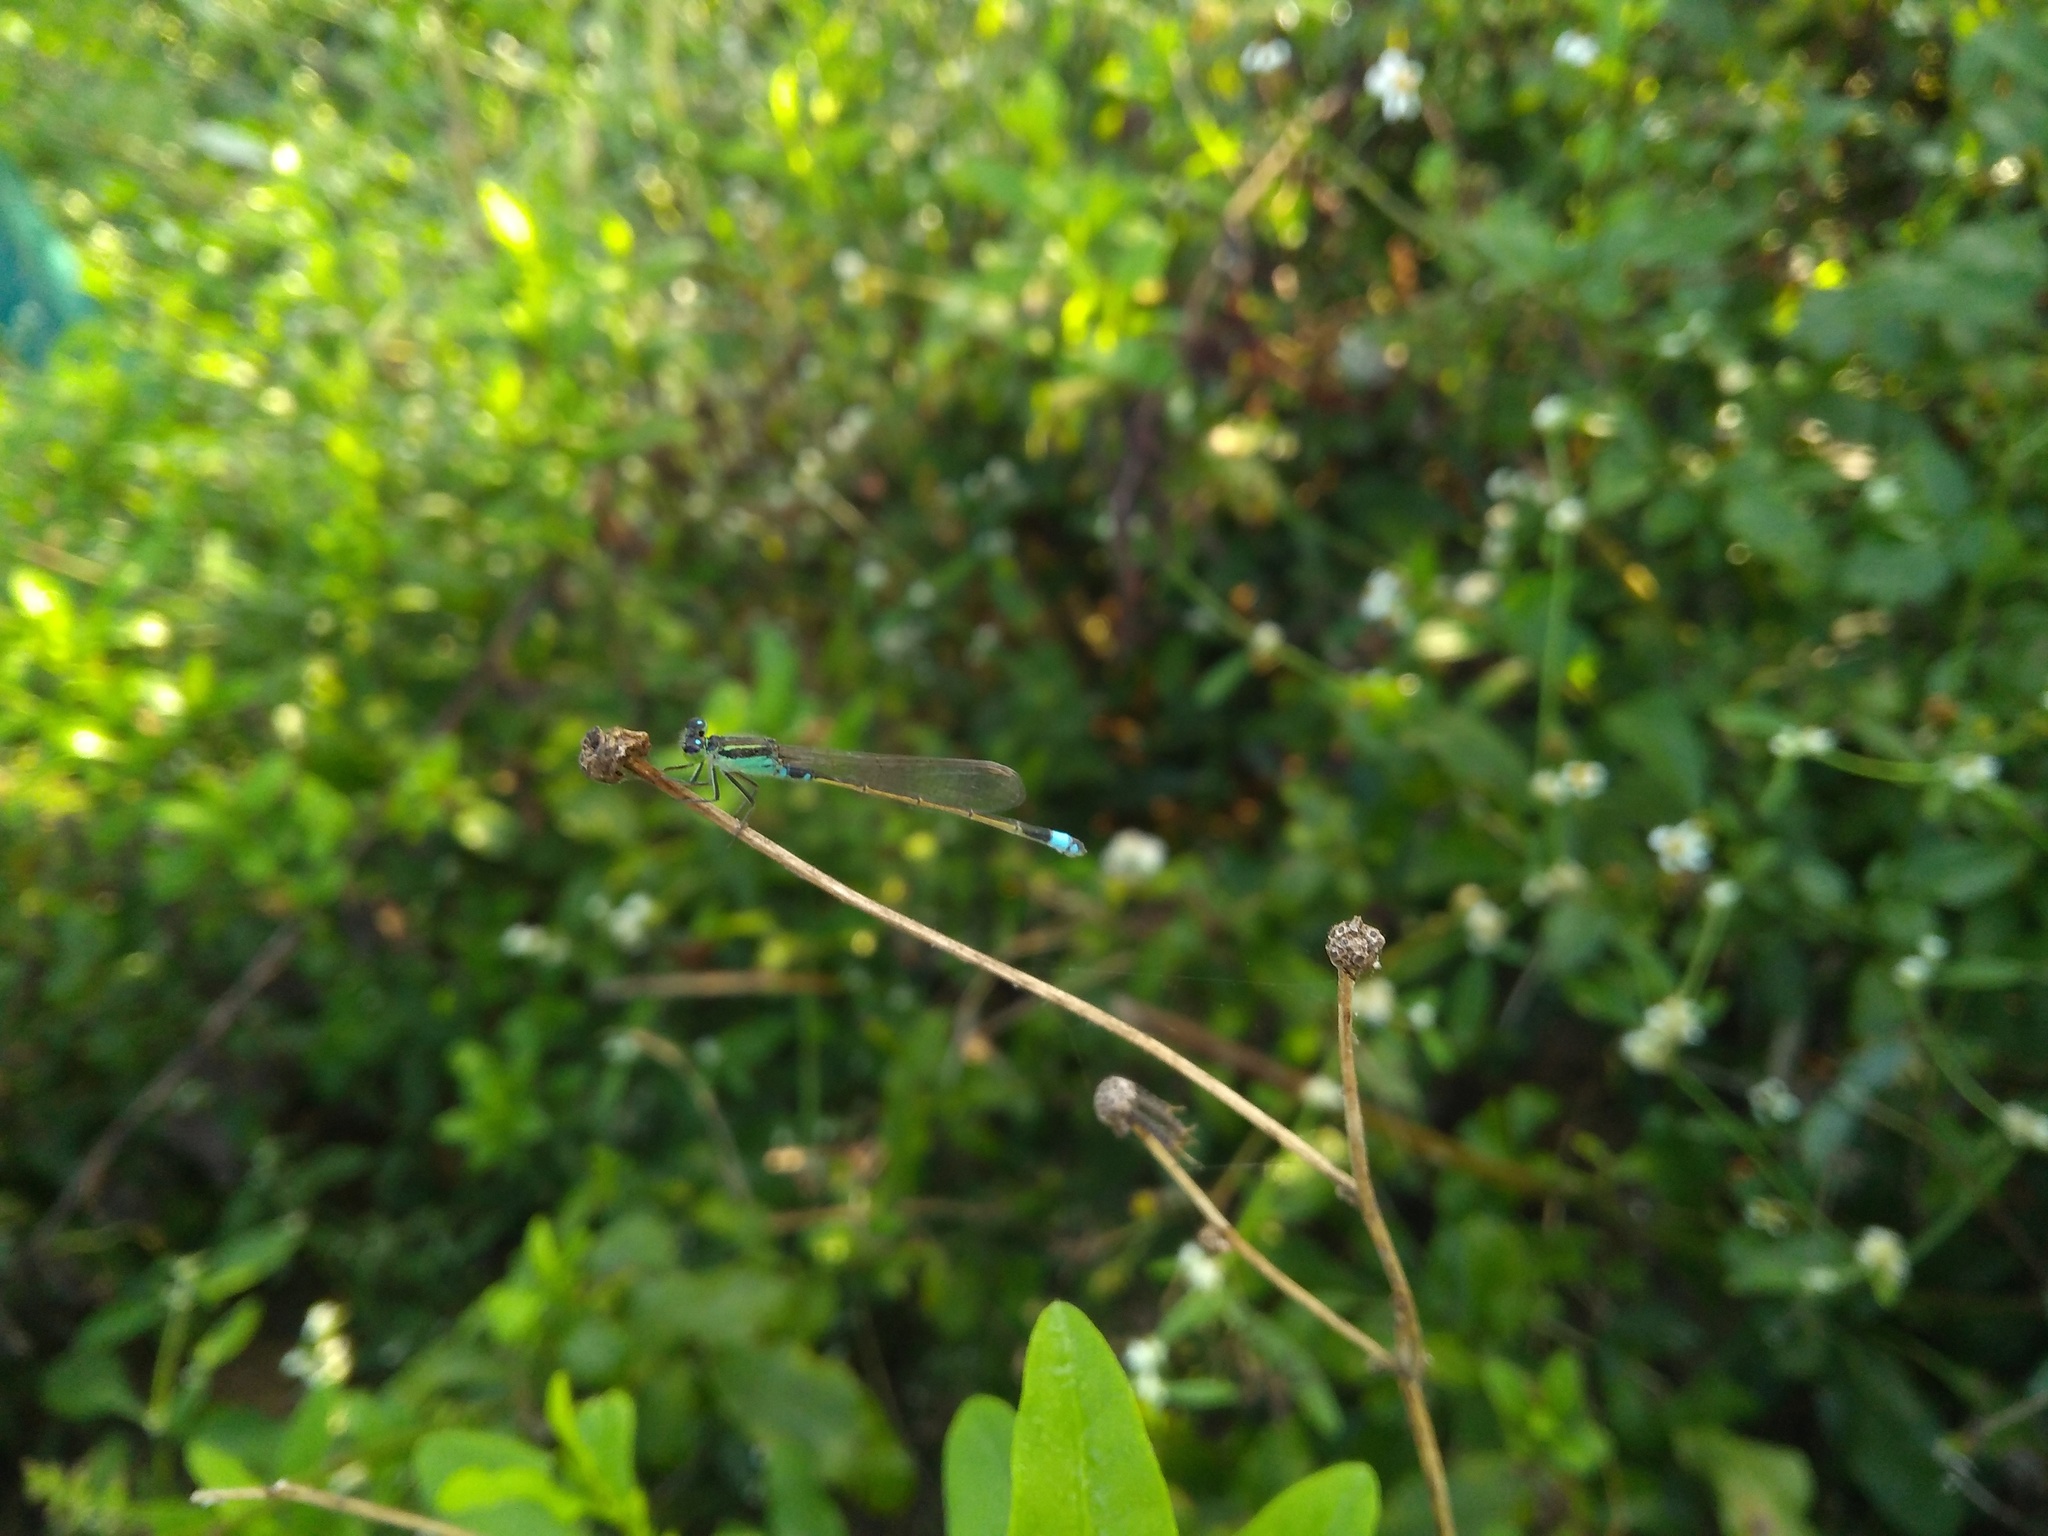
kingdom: Animalia
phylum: Arthropoda
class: Insecta
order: Odonata
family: Coenagrionidae
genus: Ischnura
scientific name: Ischnura senegalensis
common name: Tropical bluetail
